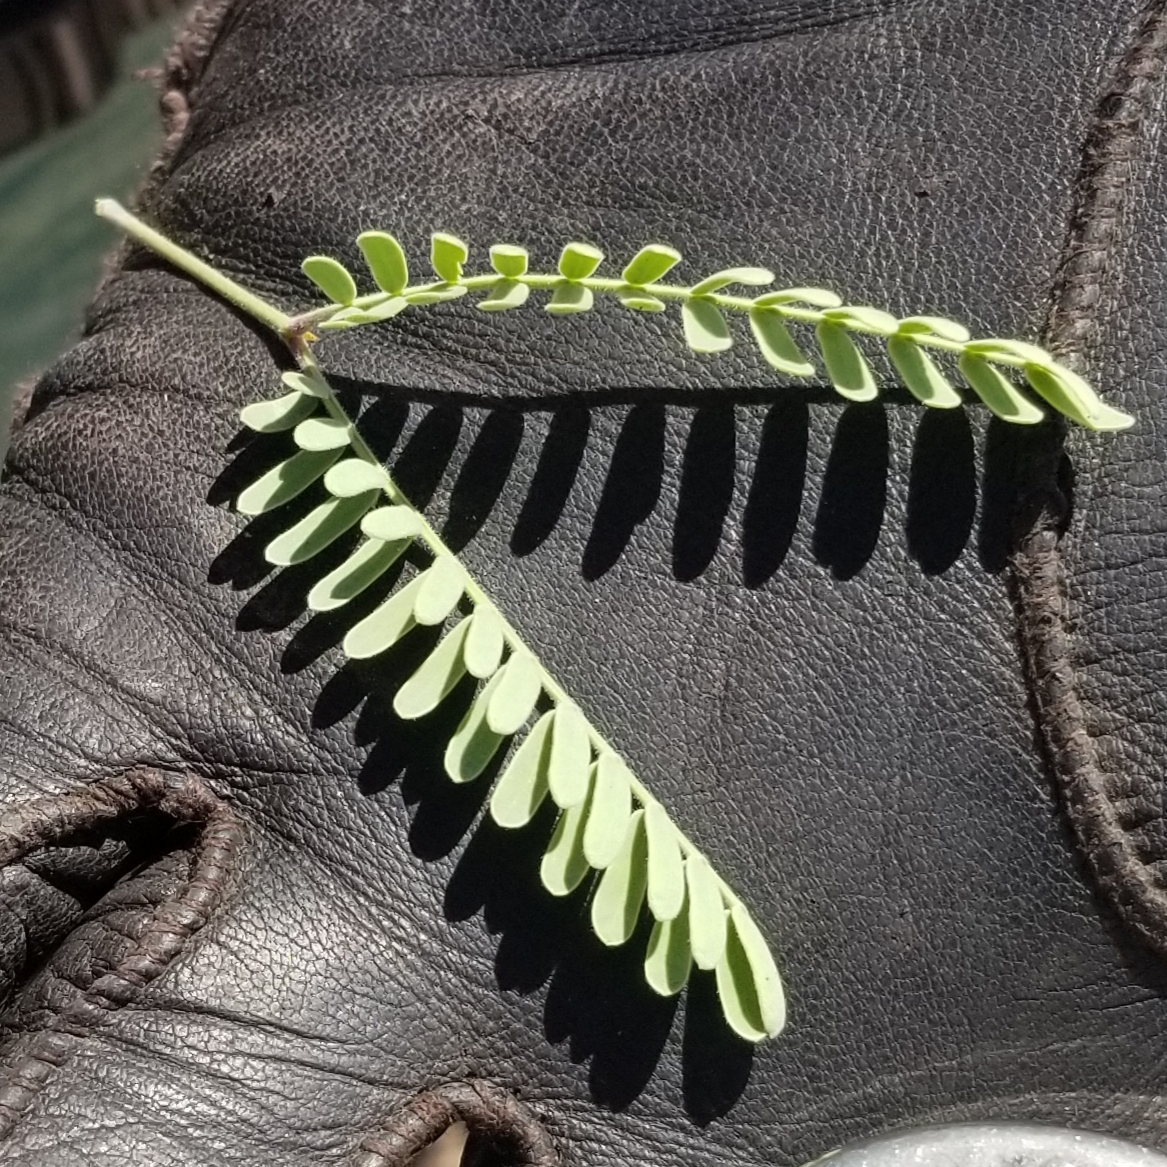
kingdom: Plantae
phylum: Tracheophyta
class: Magnoliopsida
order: Fabales
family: Fabaceae
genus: Prosopis
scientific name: Prosopis velutina
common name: Velvet mesquite
